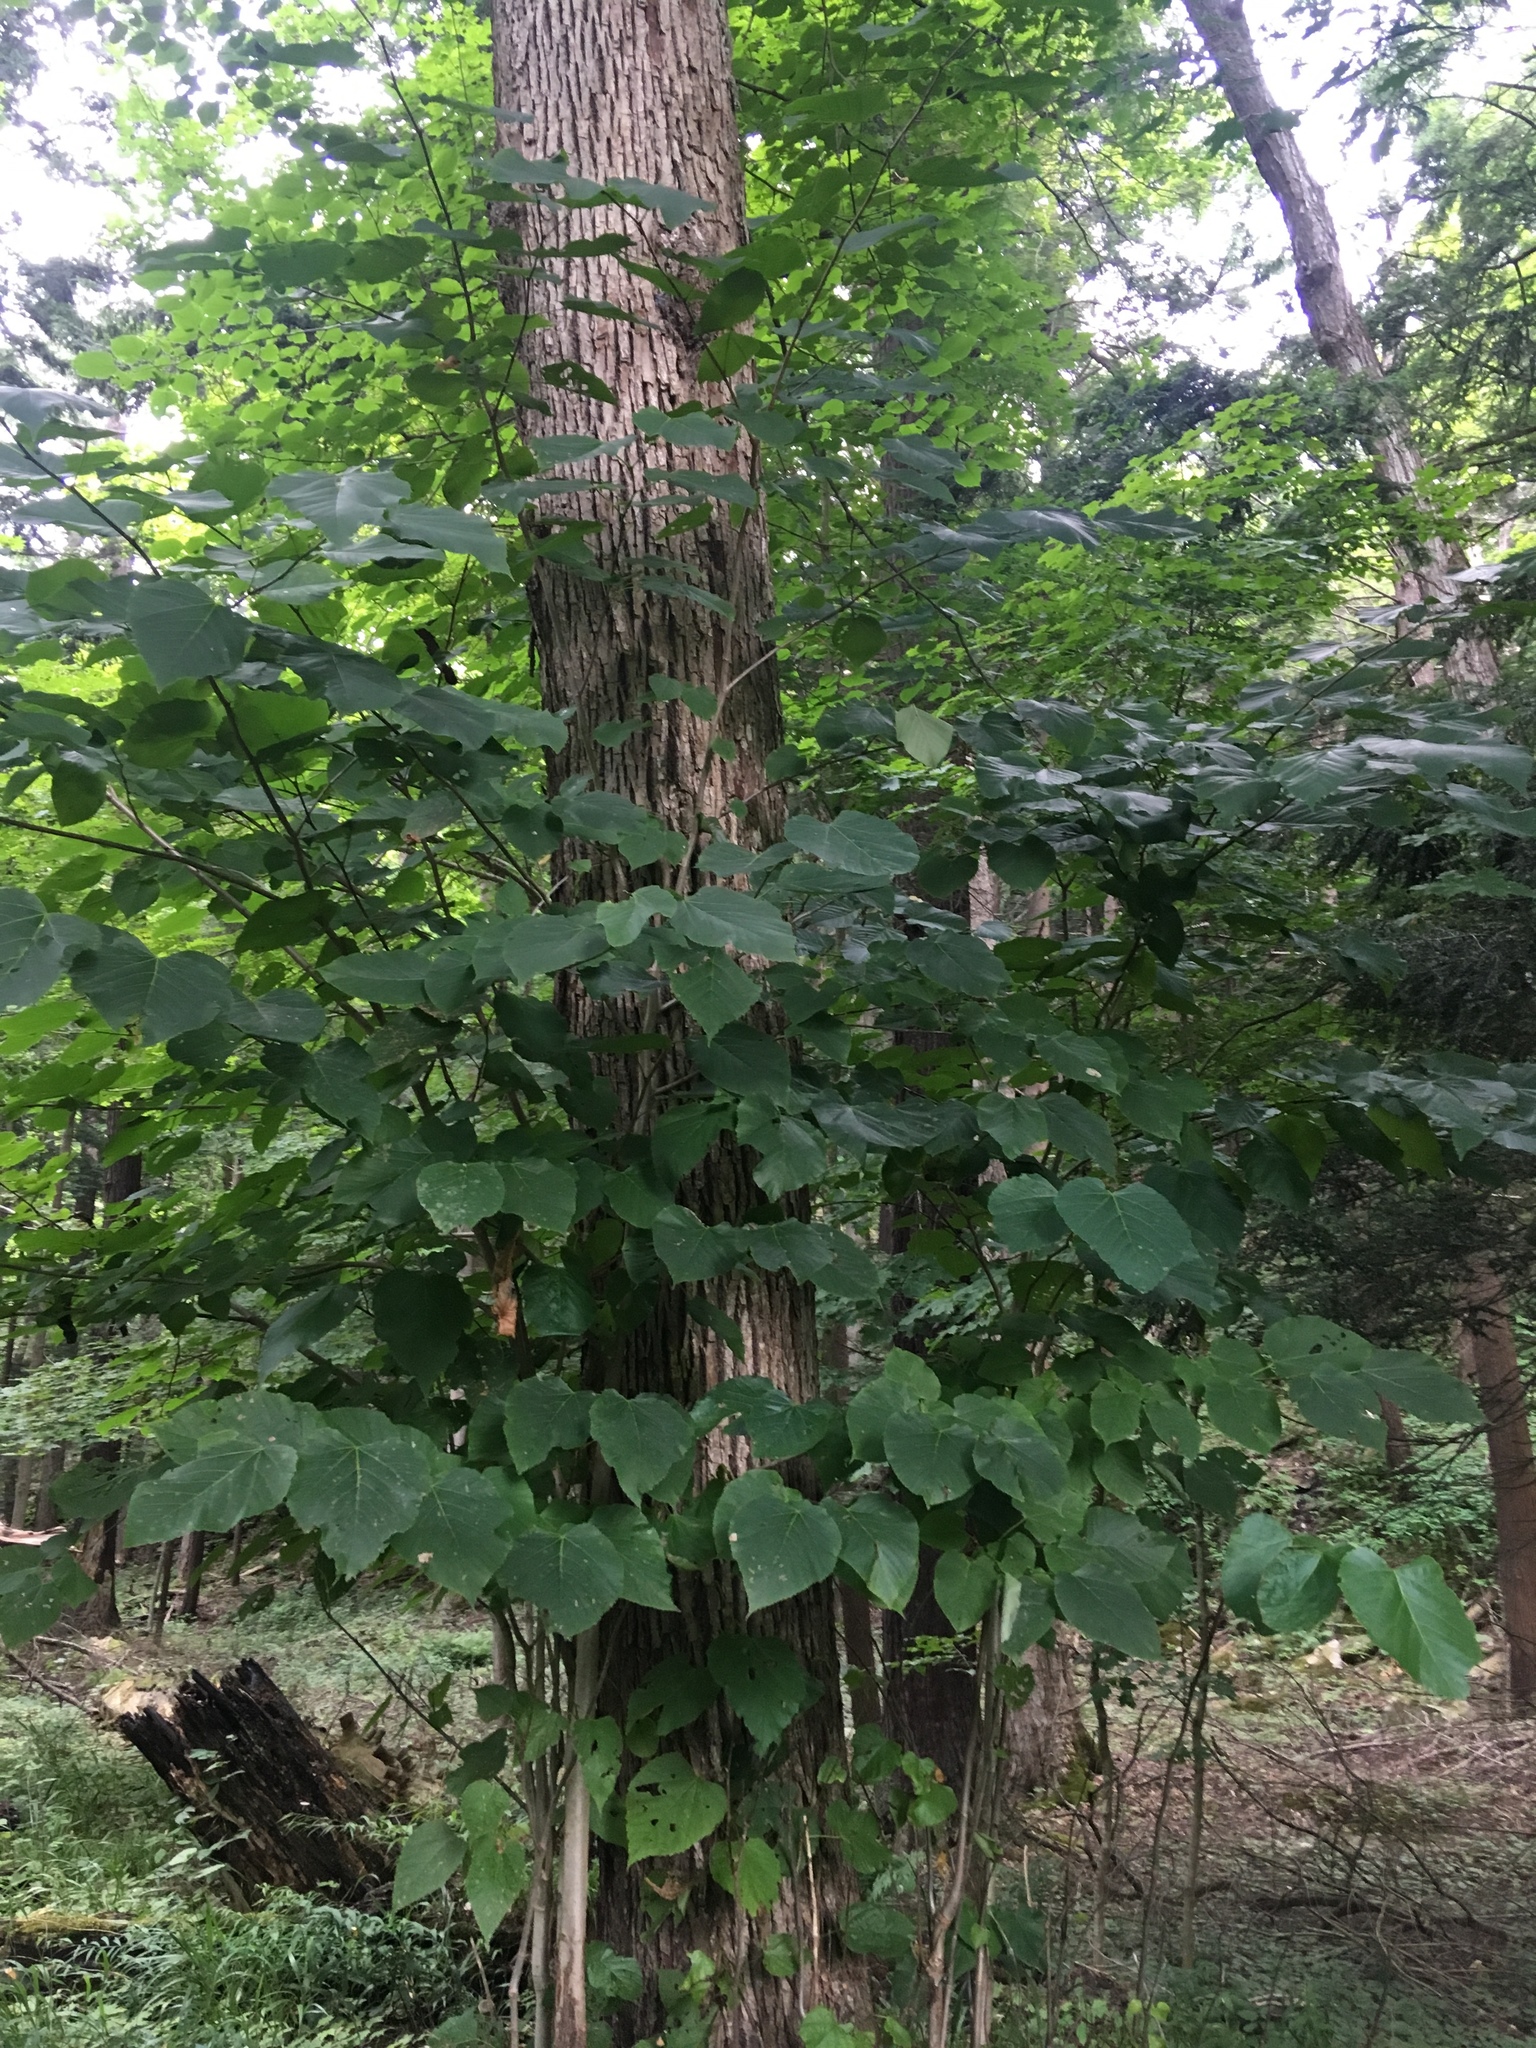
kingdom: Plantae
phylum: Tracheophyta
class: Magnoliopsida
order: Malvales
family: Malvaceae
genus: Tilia
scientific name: Tilia americana
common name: Basswood
